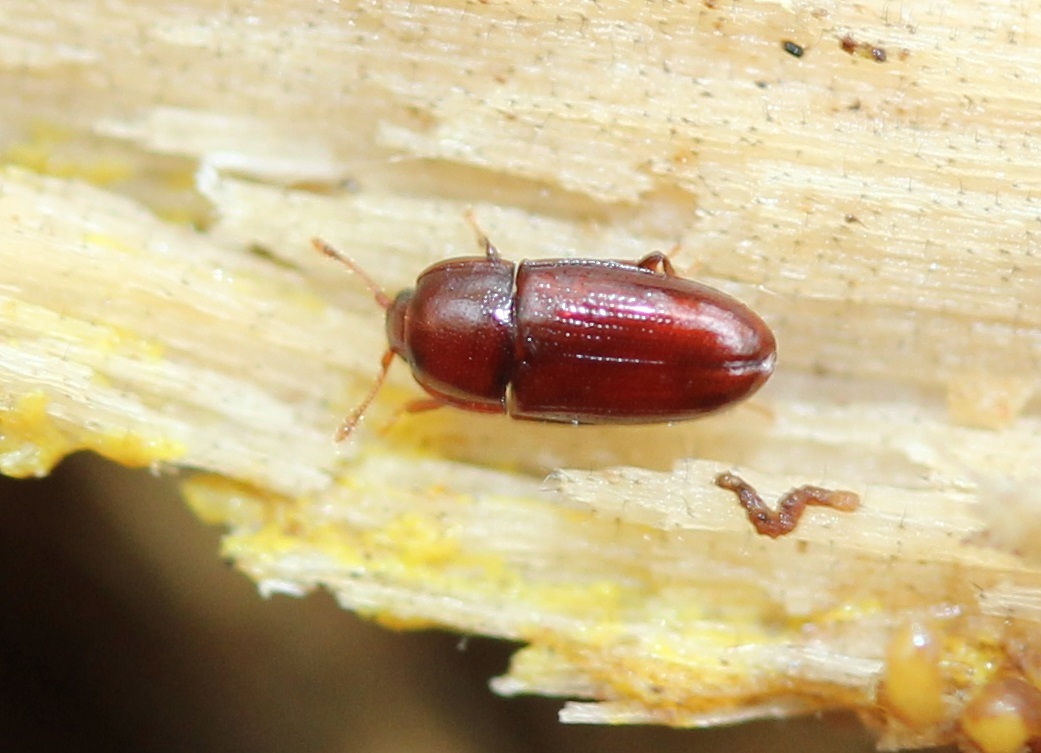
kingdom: Animalia
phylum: Arthropoda
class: Insecta
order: Coleoptera
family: Cerylonidae
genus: Philothermus
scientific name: Philothermus glabriculus
